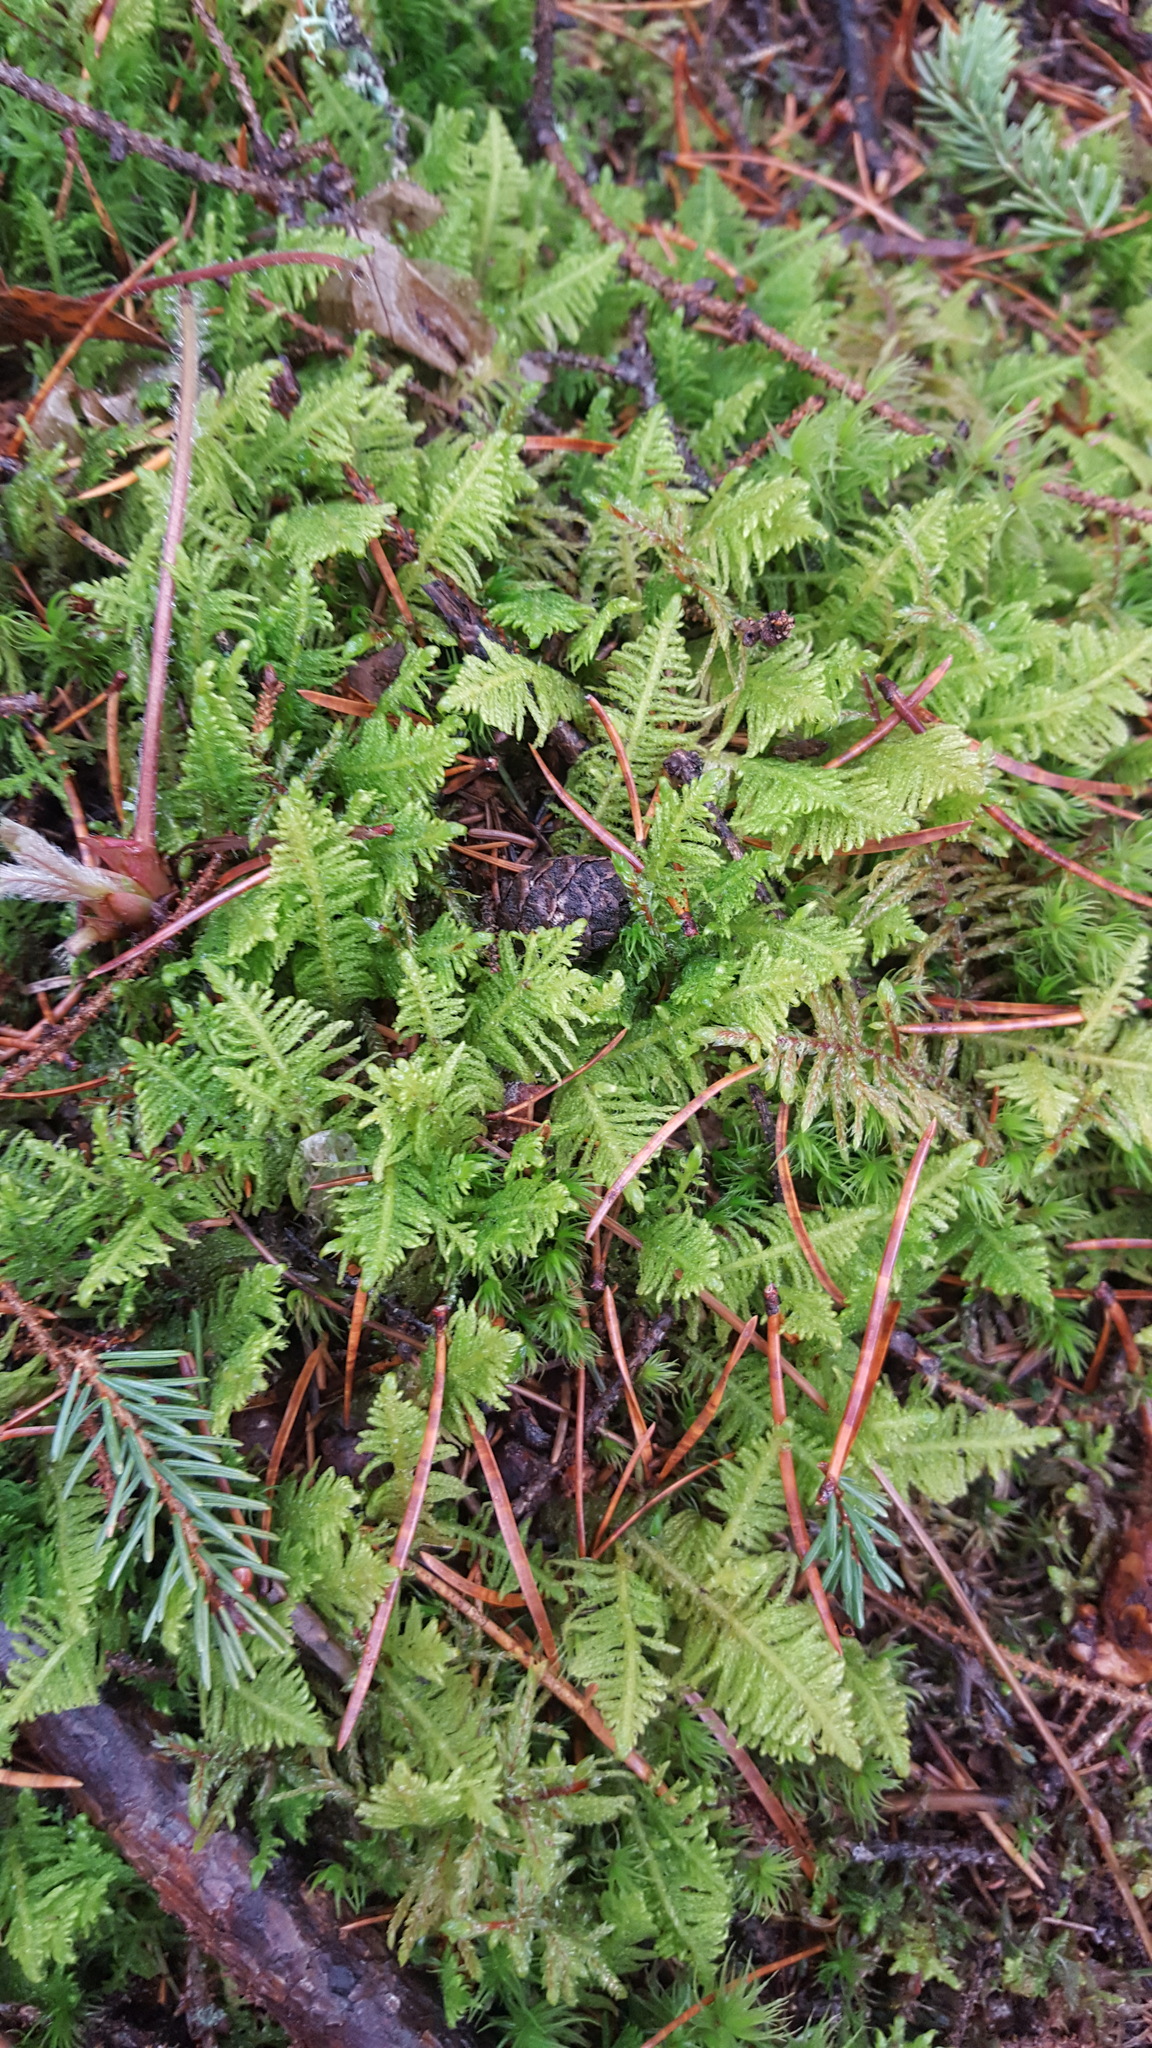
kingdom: Plantae
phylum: Bryophyta
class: Bryopsida
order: Hypnales
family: Pylaisiaceae
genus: Ptilium
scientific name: Ptilium crista-castrensis
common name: Knight's plume moss
